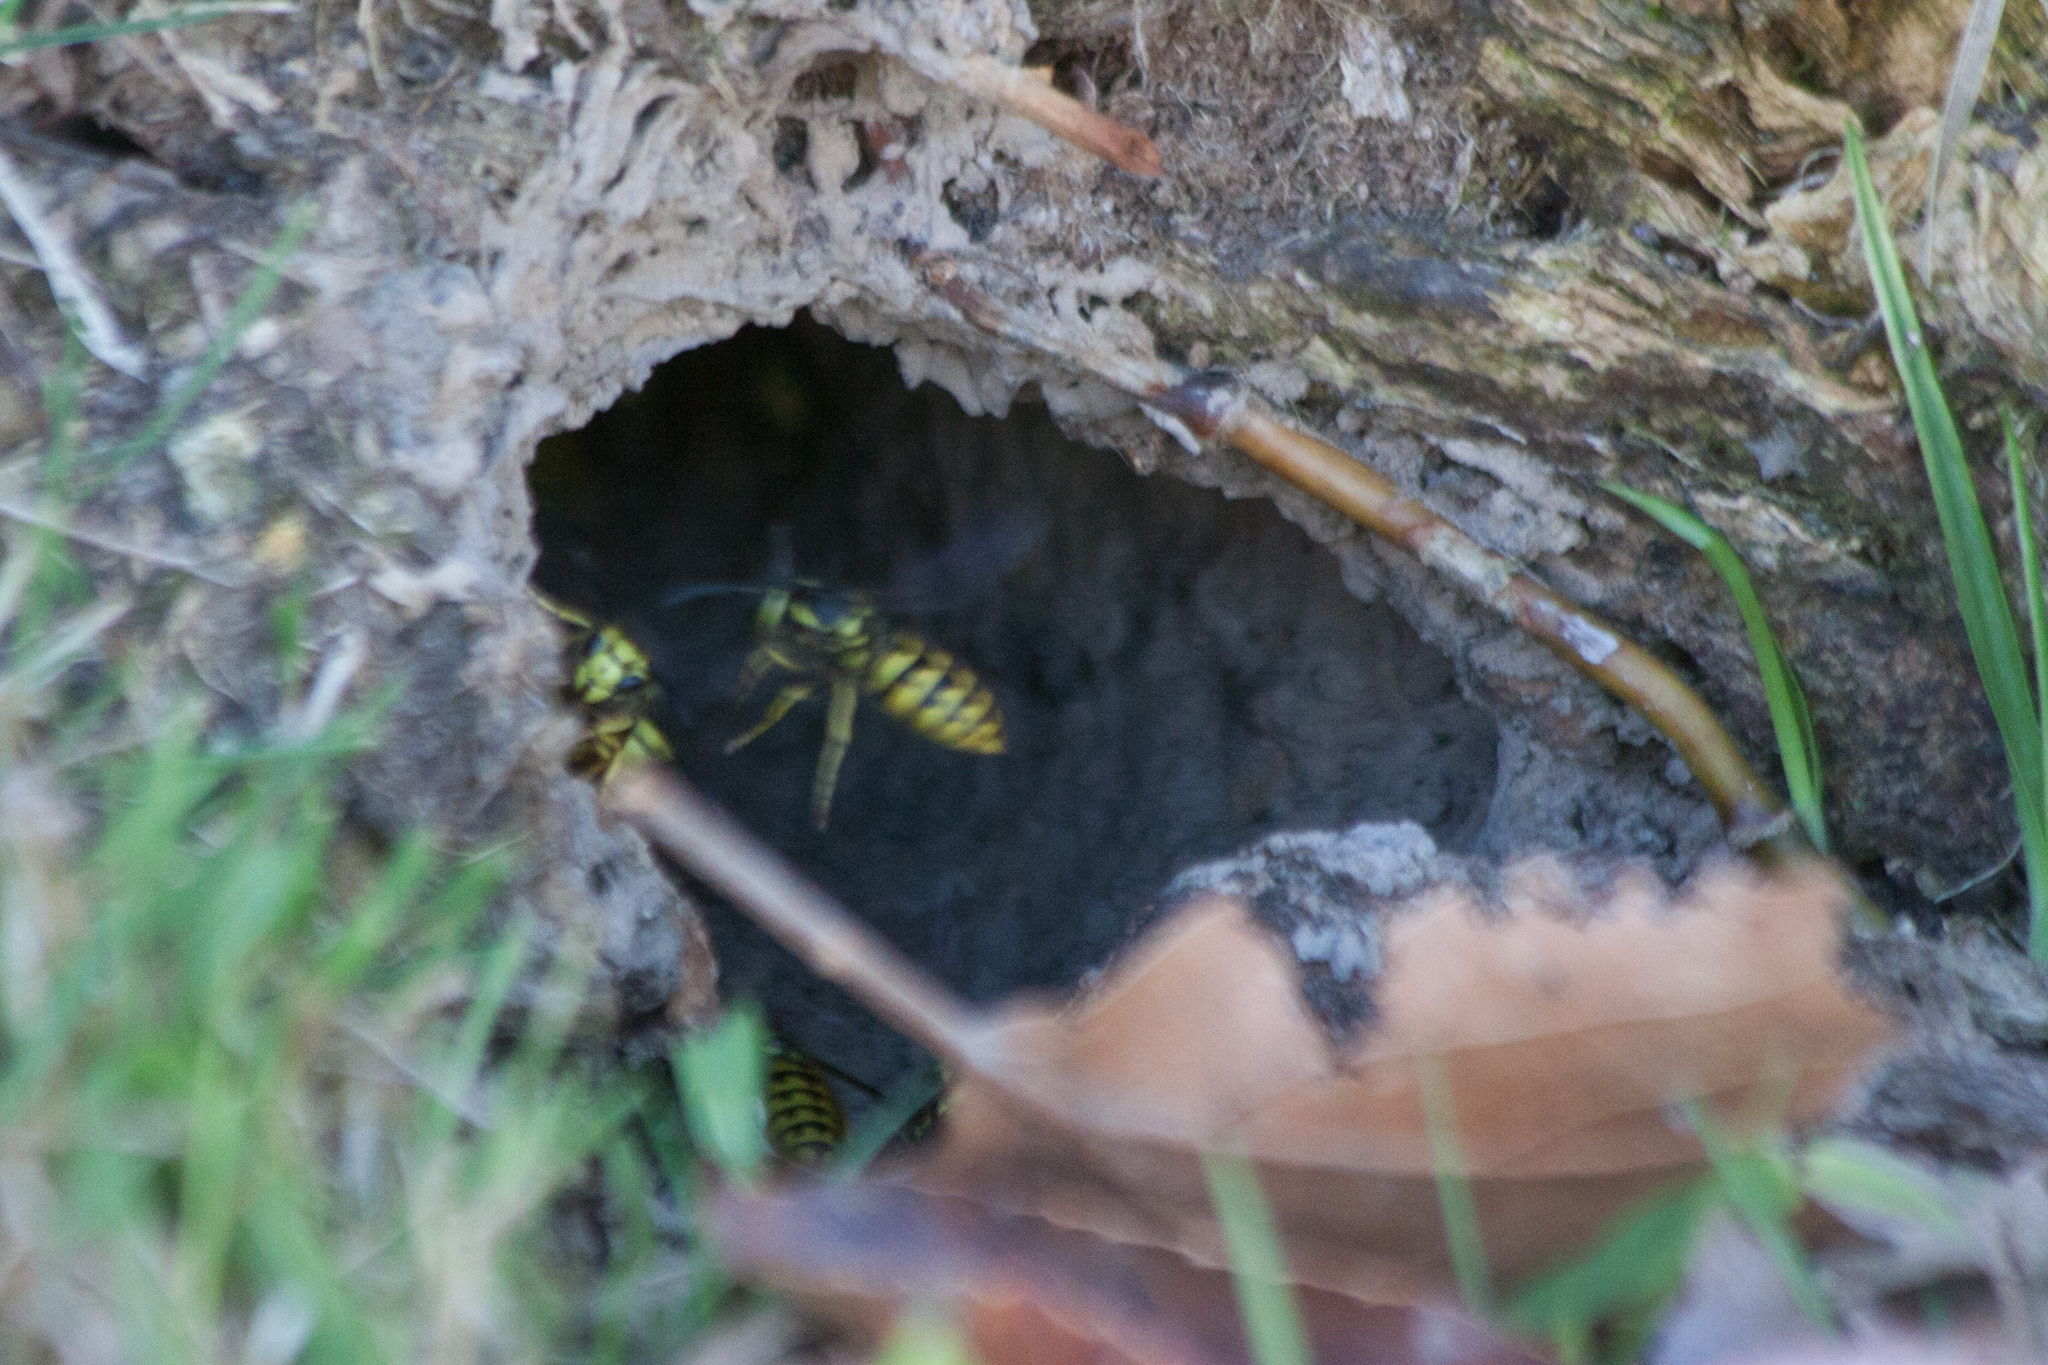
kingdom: Animalia
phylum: Arthropoda
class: Insecta
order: Hymenoptera
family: Vespidae
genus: Vespula
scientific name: Vespula pensylvanica
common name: Western yellowjacket
